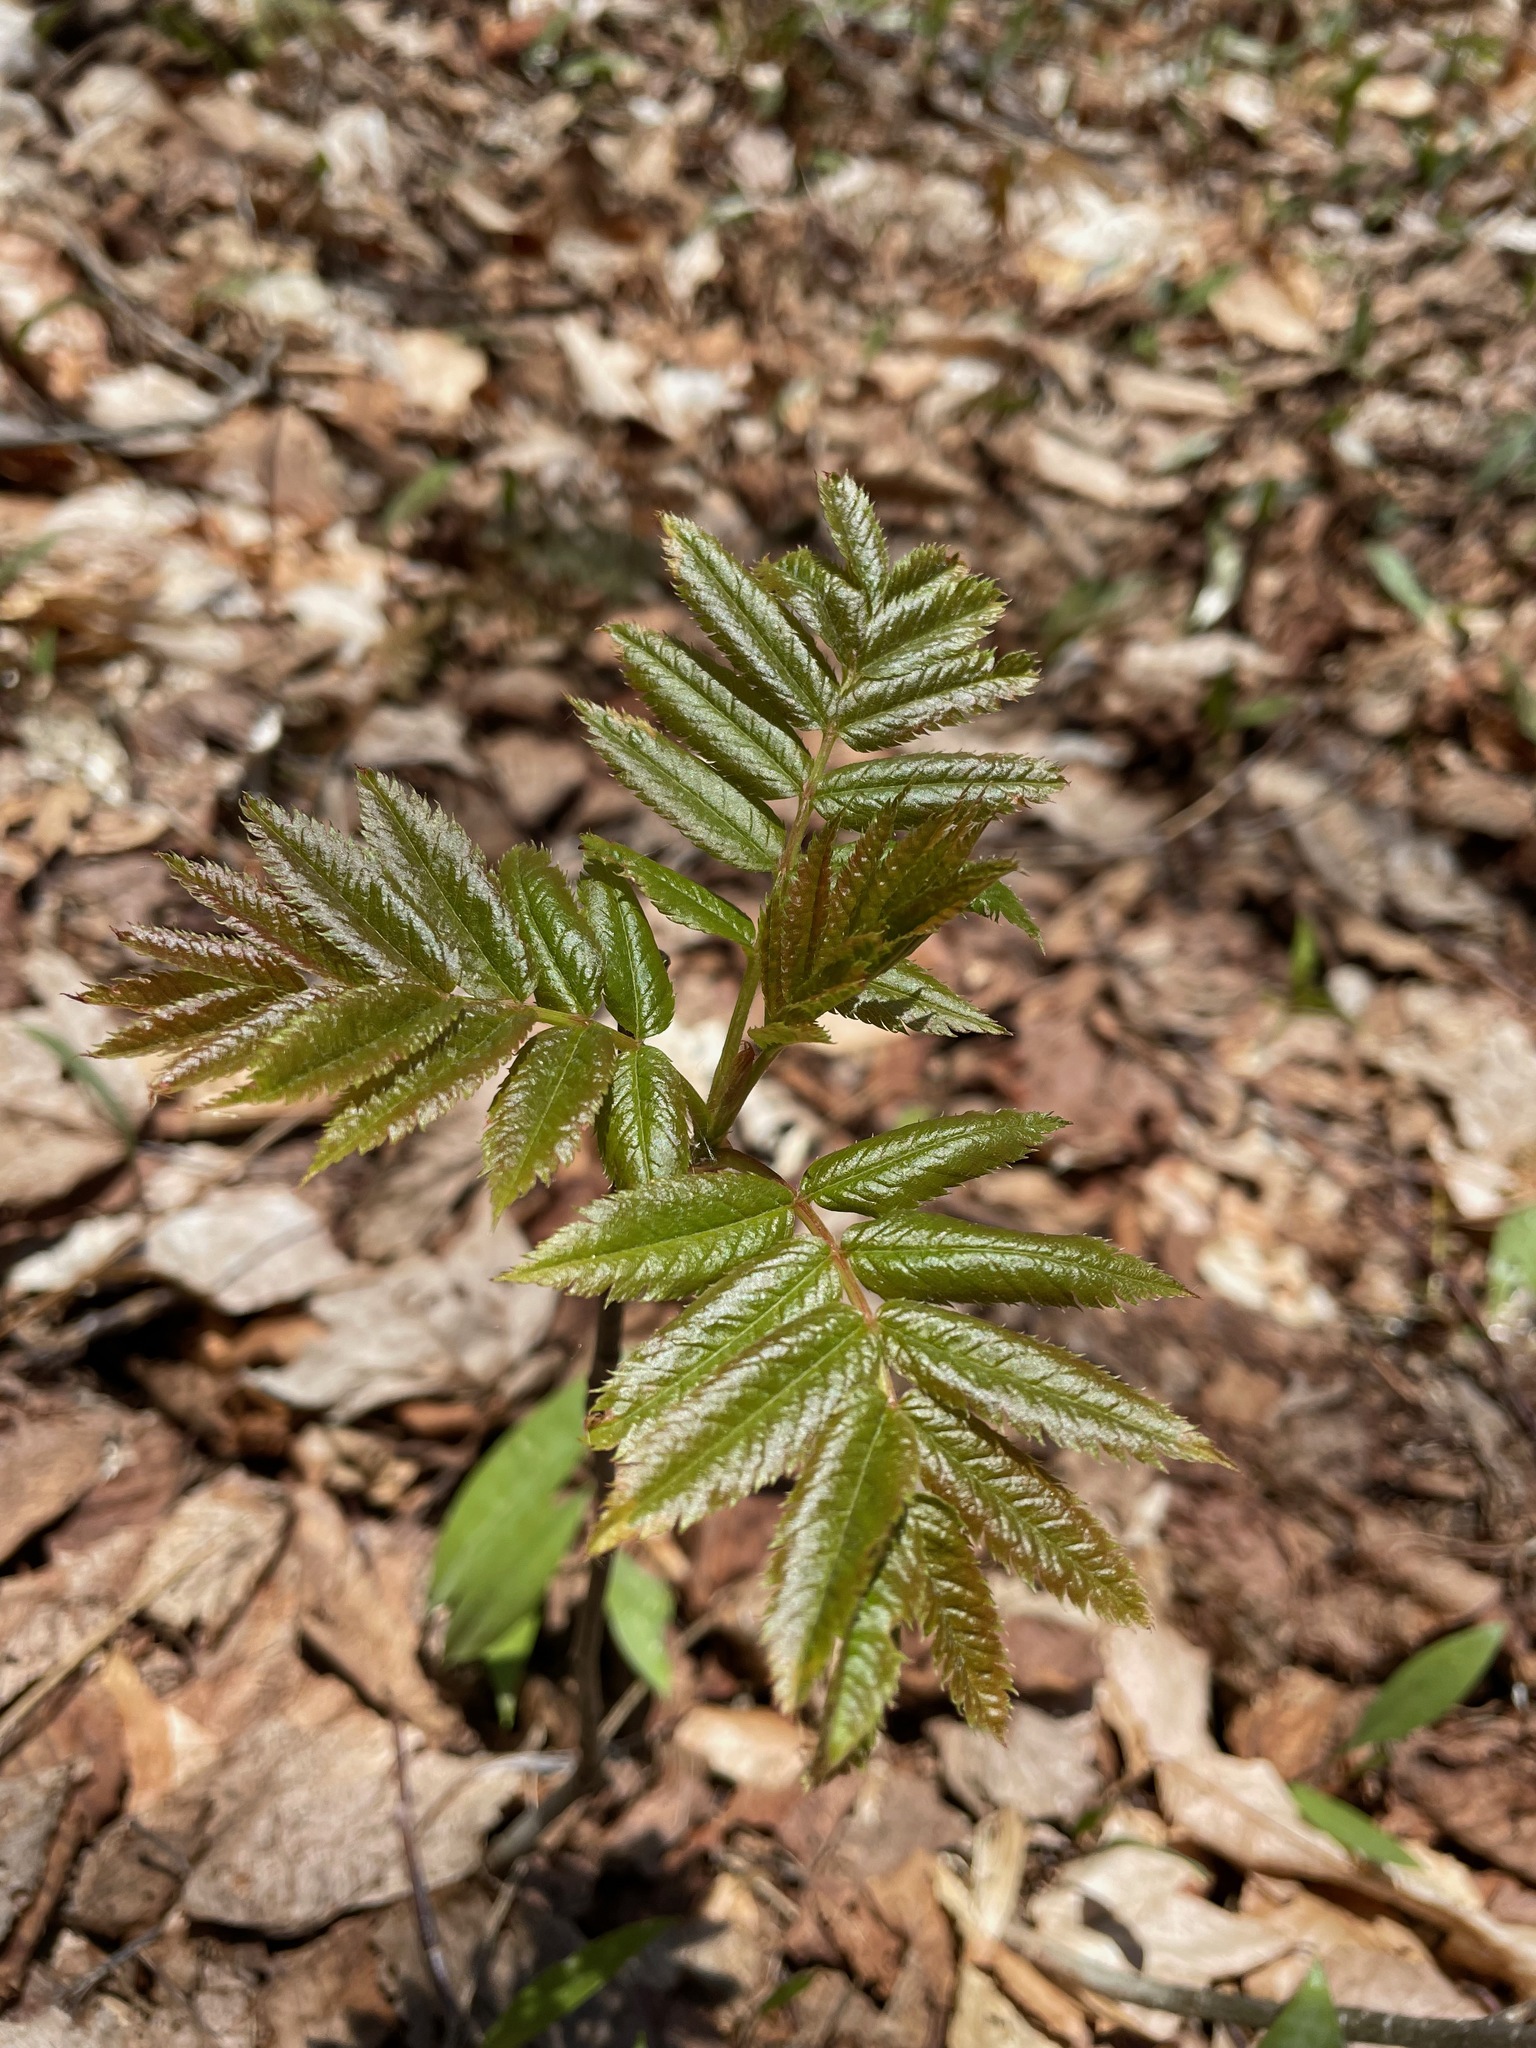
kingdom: Plantae
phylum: Tracheophyta
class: Magnoliopsida
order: Rosales
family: Rosaceae
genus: Sorbus
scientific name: Sorbus americana
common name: American mountain-ash
